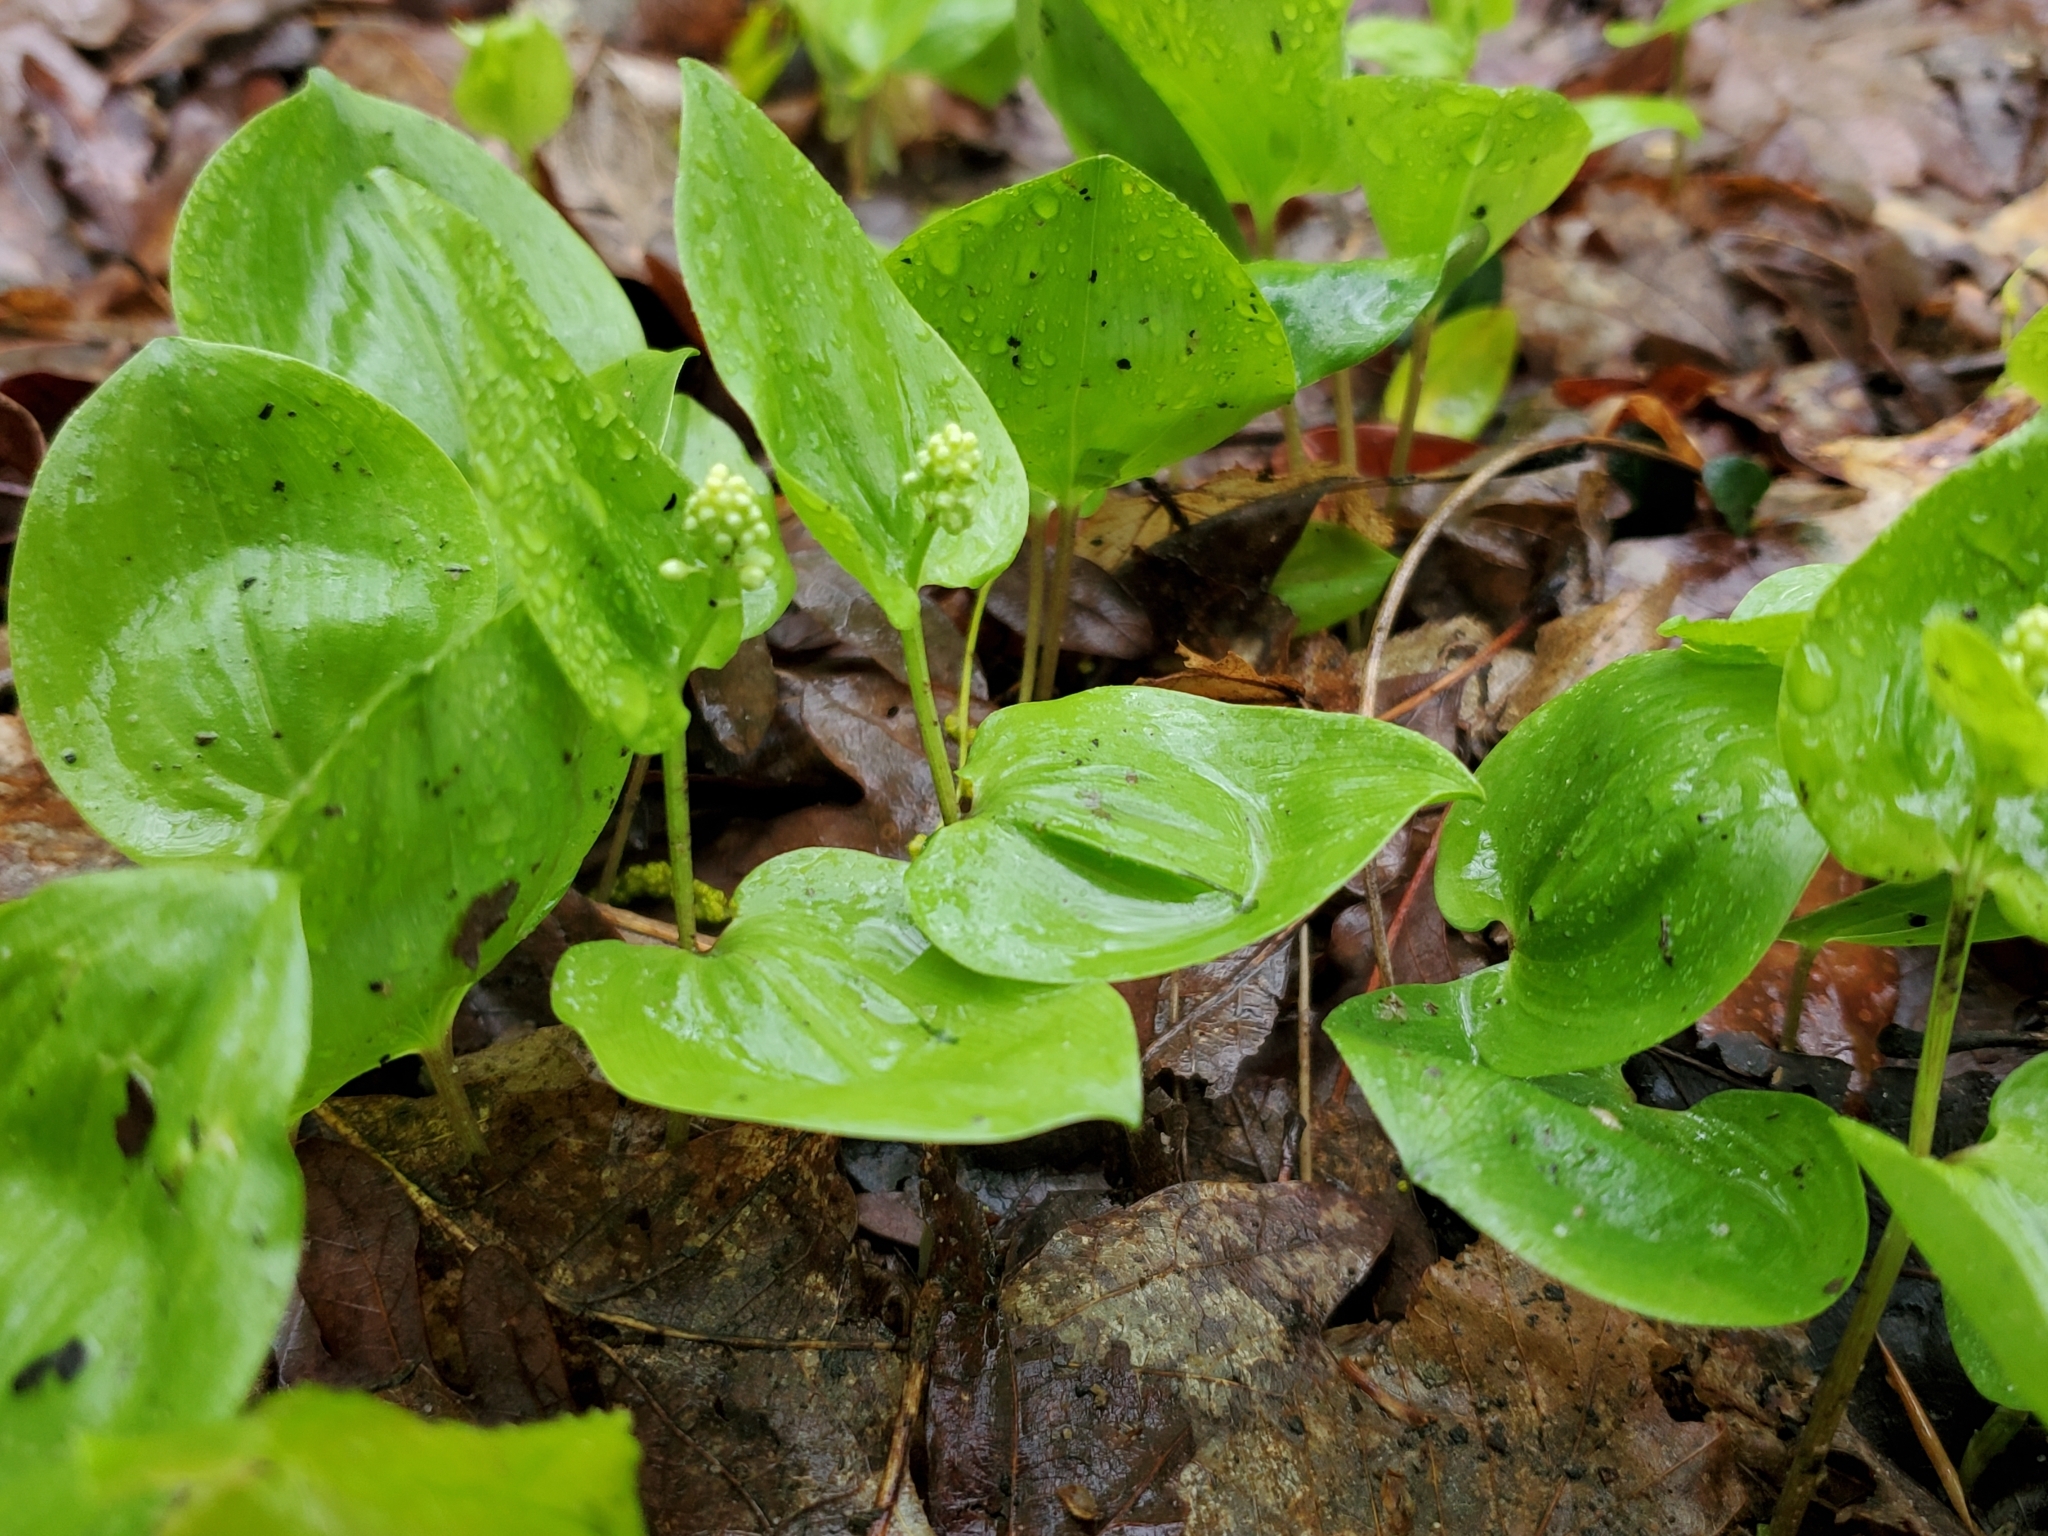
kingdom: Plantae
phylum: Tracheophyta
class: Liliopsida
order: Asparagales
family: Asparagaceae
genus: Maianthemum
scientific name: Maianthemum canadense
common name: False lily-of-the-valley
